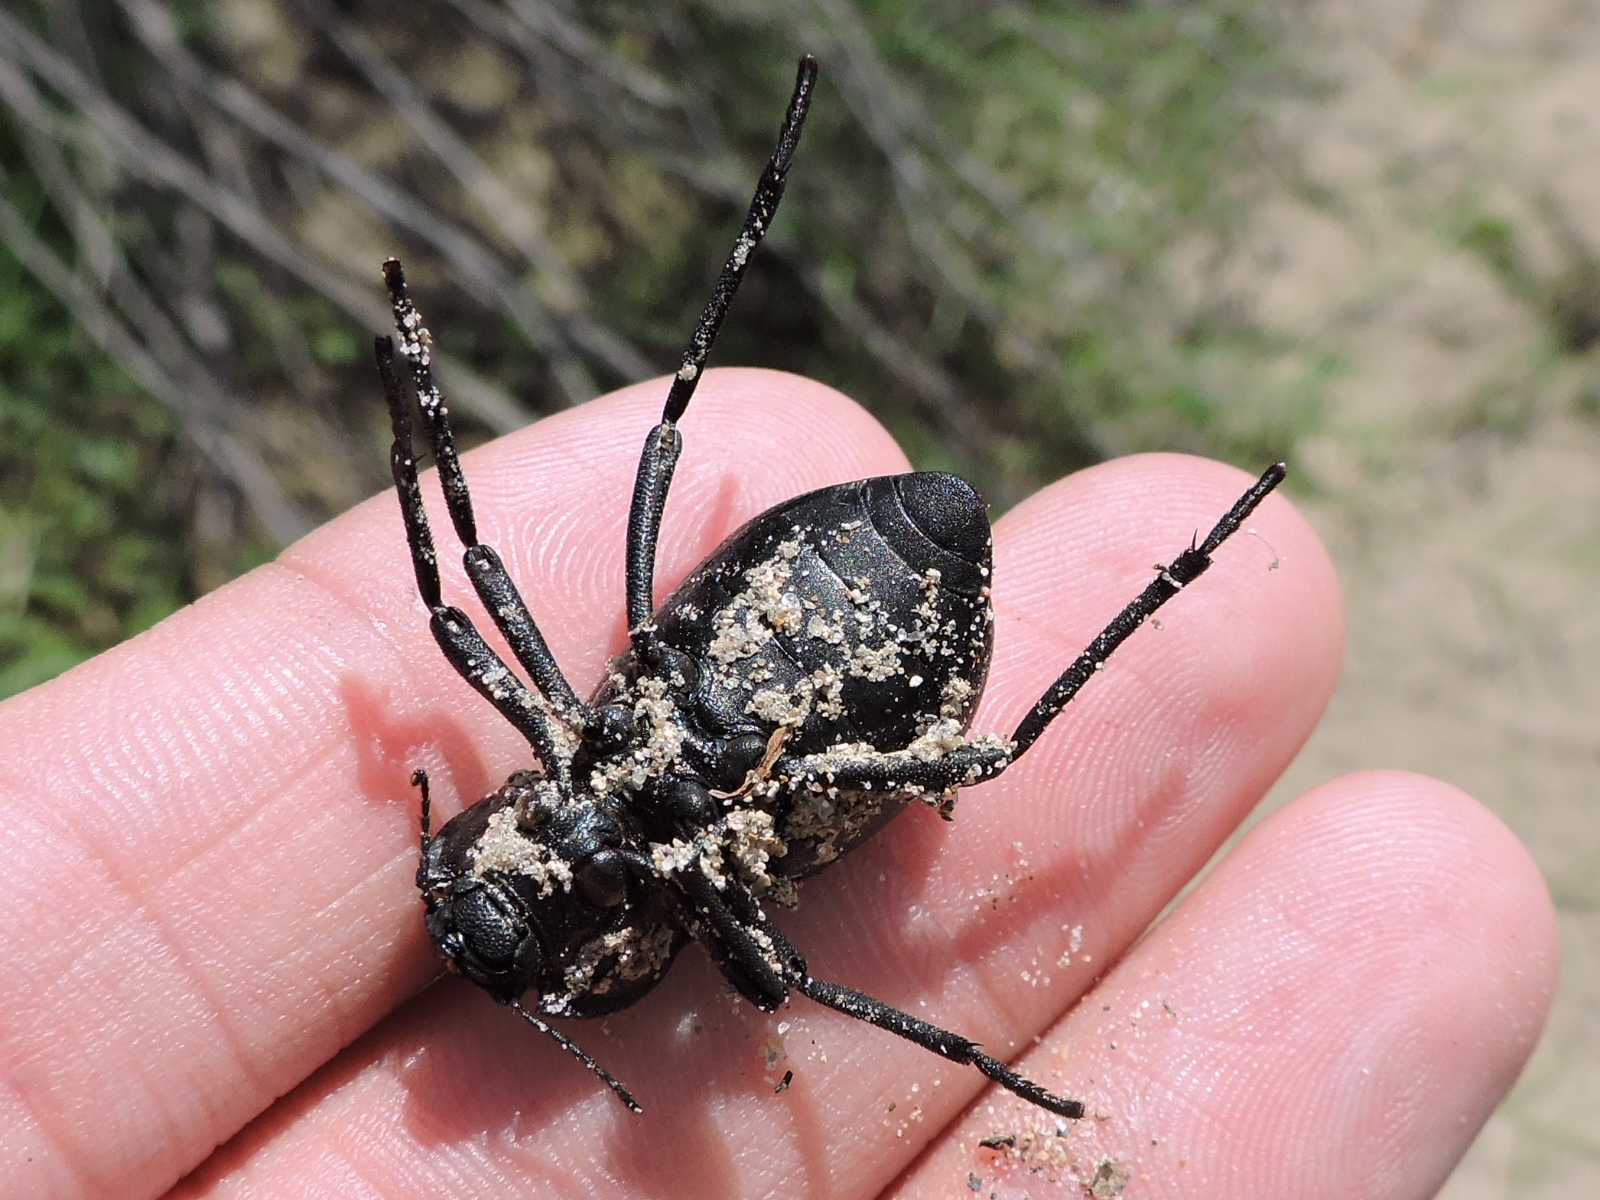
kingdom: Animalia
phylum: Arthropoda
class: Insecta
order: Coleoptera
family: Tenebrionidae
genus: Stenomorpha
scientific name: Stenomorpha tenuicollis
